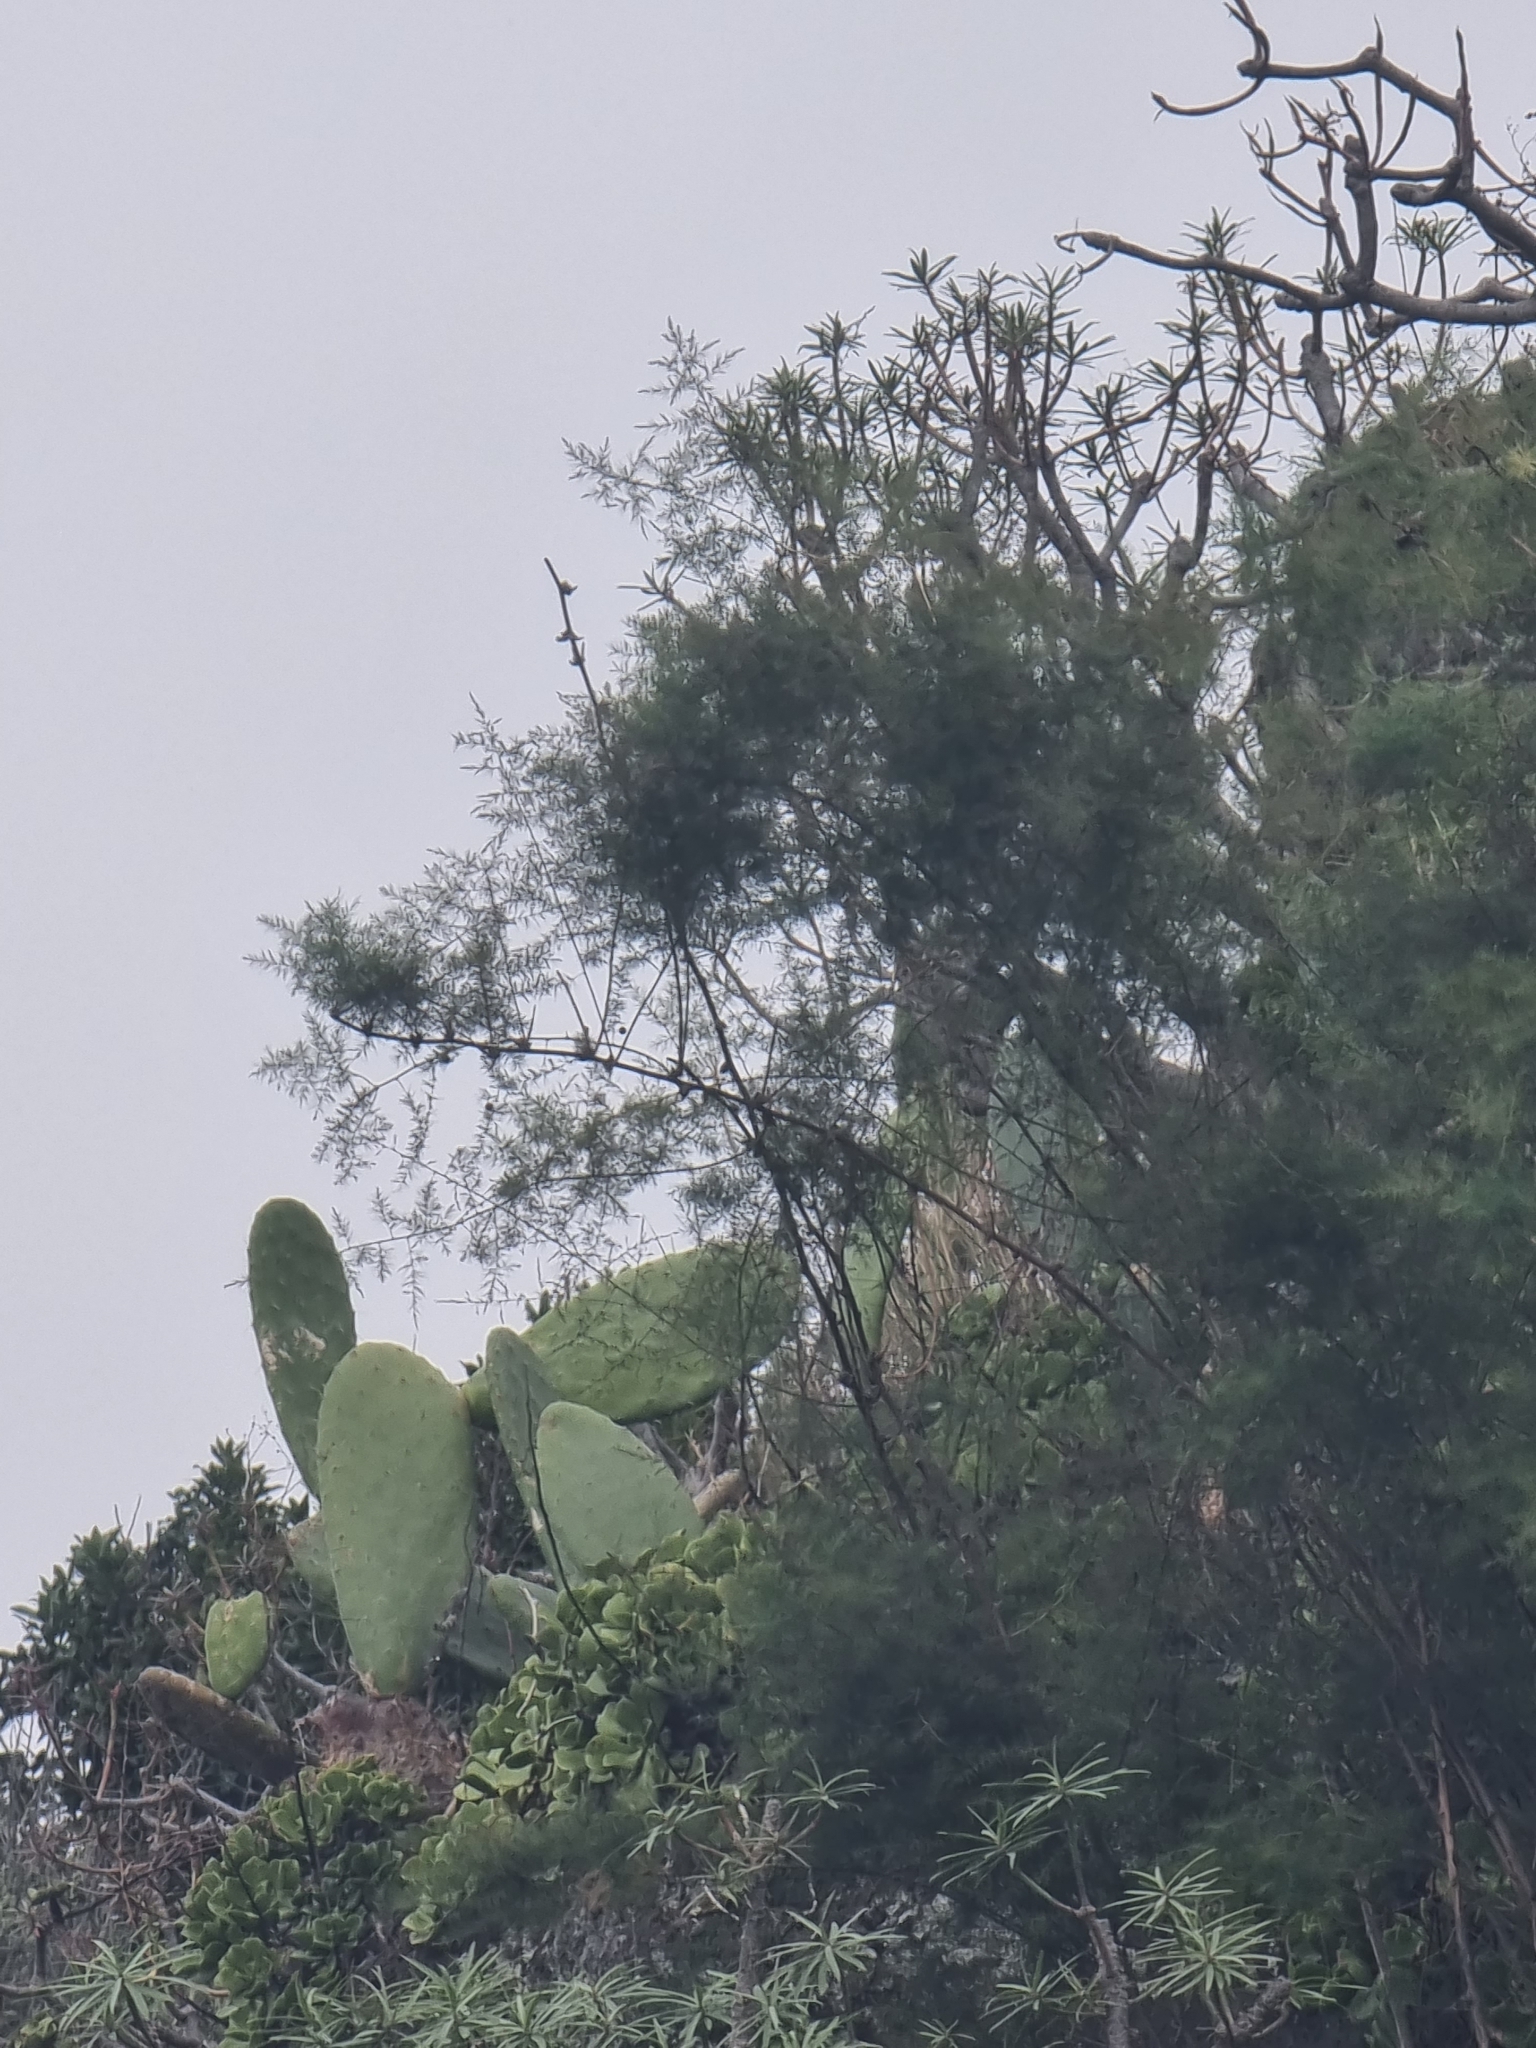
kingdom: Plantae
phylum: Tracheophyta
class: Liliopsida
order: Asparagales
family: Asparagaceae
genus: Asparagus
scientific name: Asparagus umbellatus
